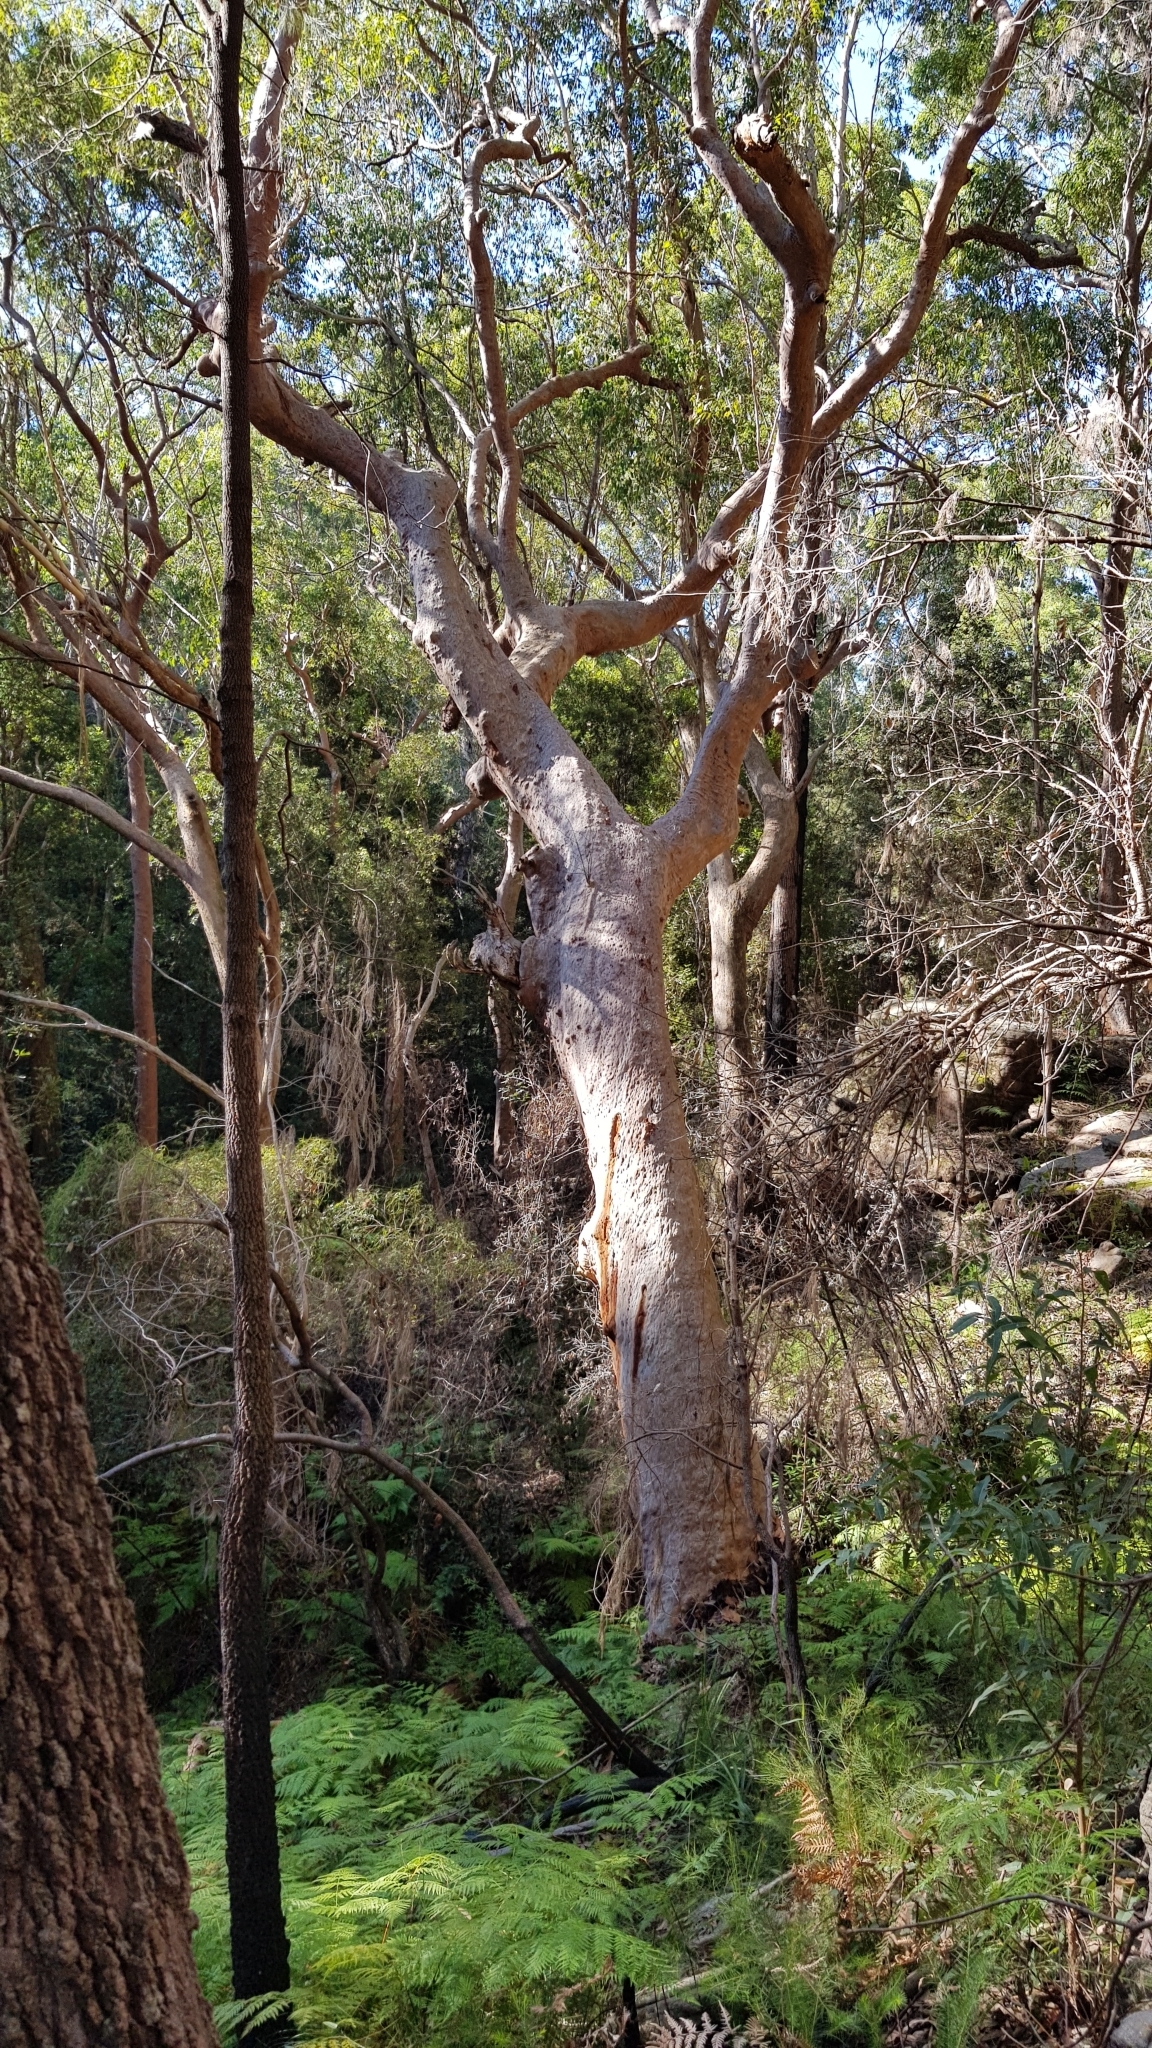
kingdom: Plantae
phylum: Tracheophyta
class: Magnoliopsida
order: Myrtales
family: Myrtaceae
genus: Angophora
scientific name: Angophora costata
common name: Gum myrtle
